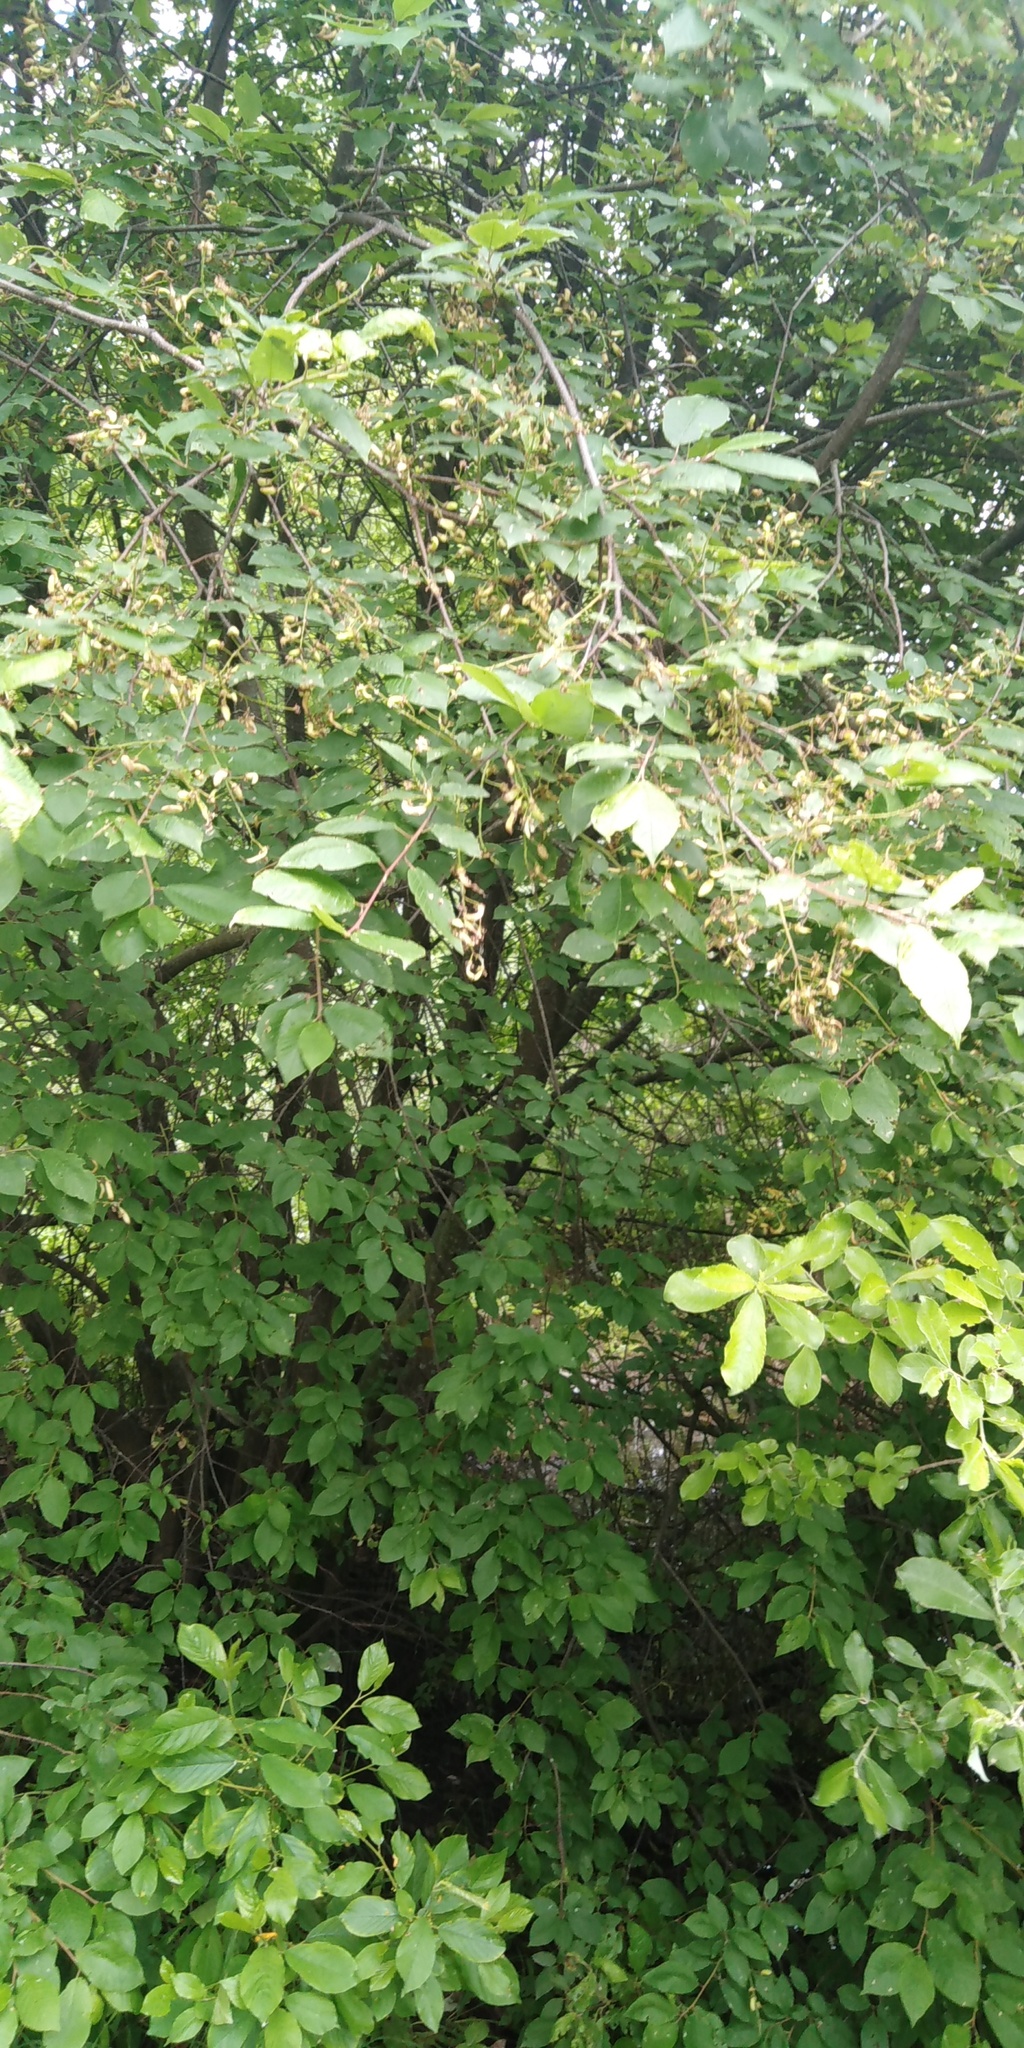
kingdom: Plantae
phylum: Tracheophyta
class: Magnoliopsida
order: Rosales
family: Rosaceae
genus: Prunus
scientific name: Prunus padus
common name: Bird cherry
